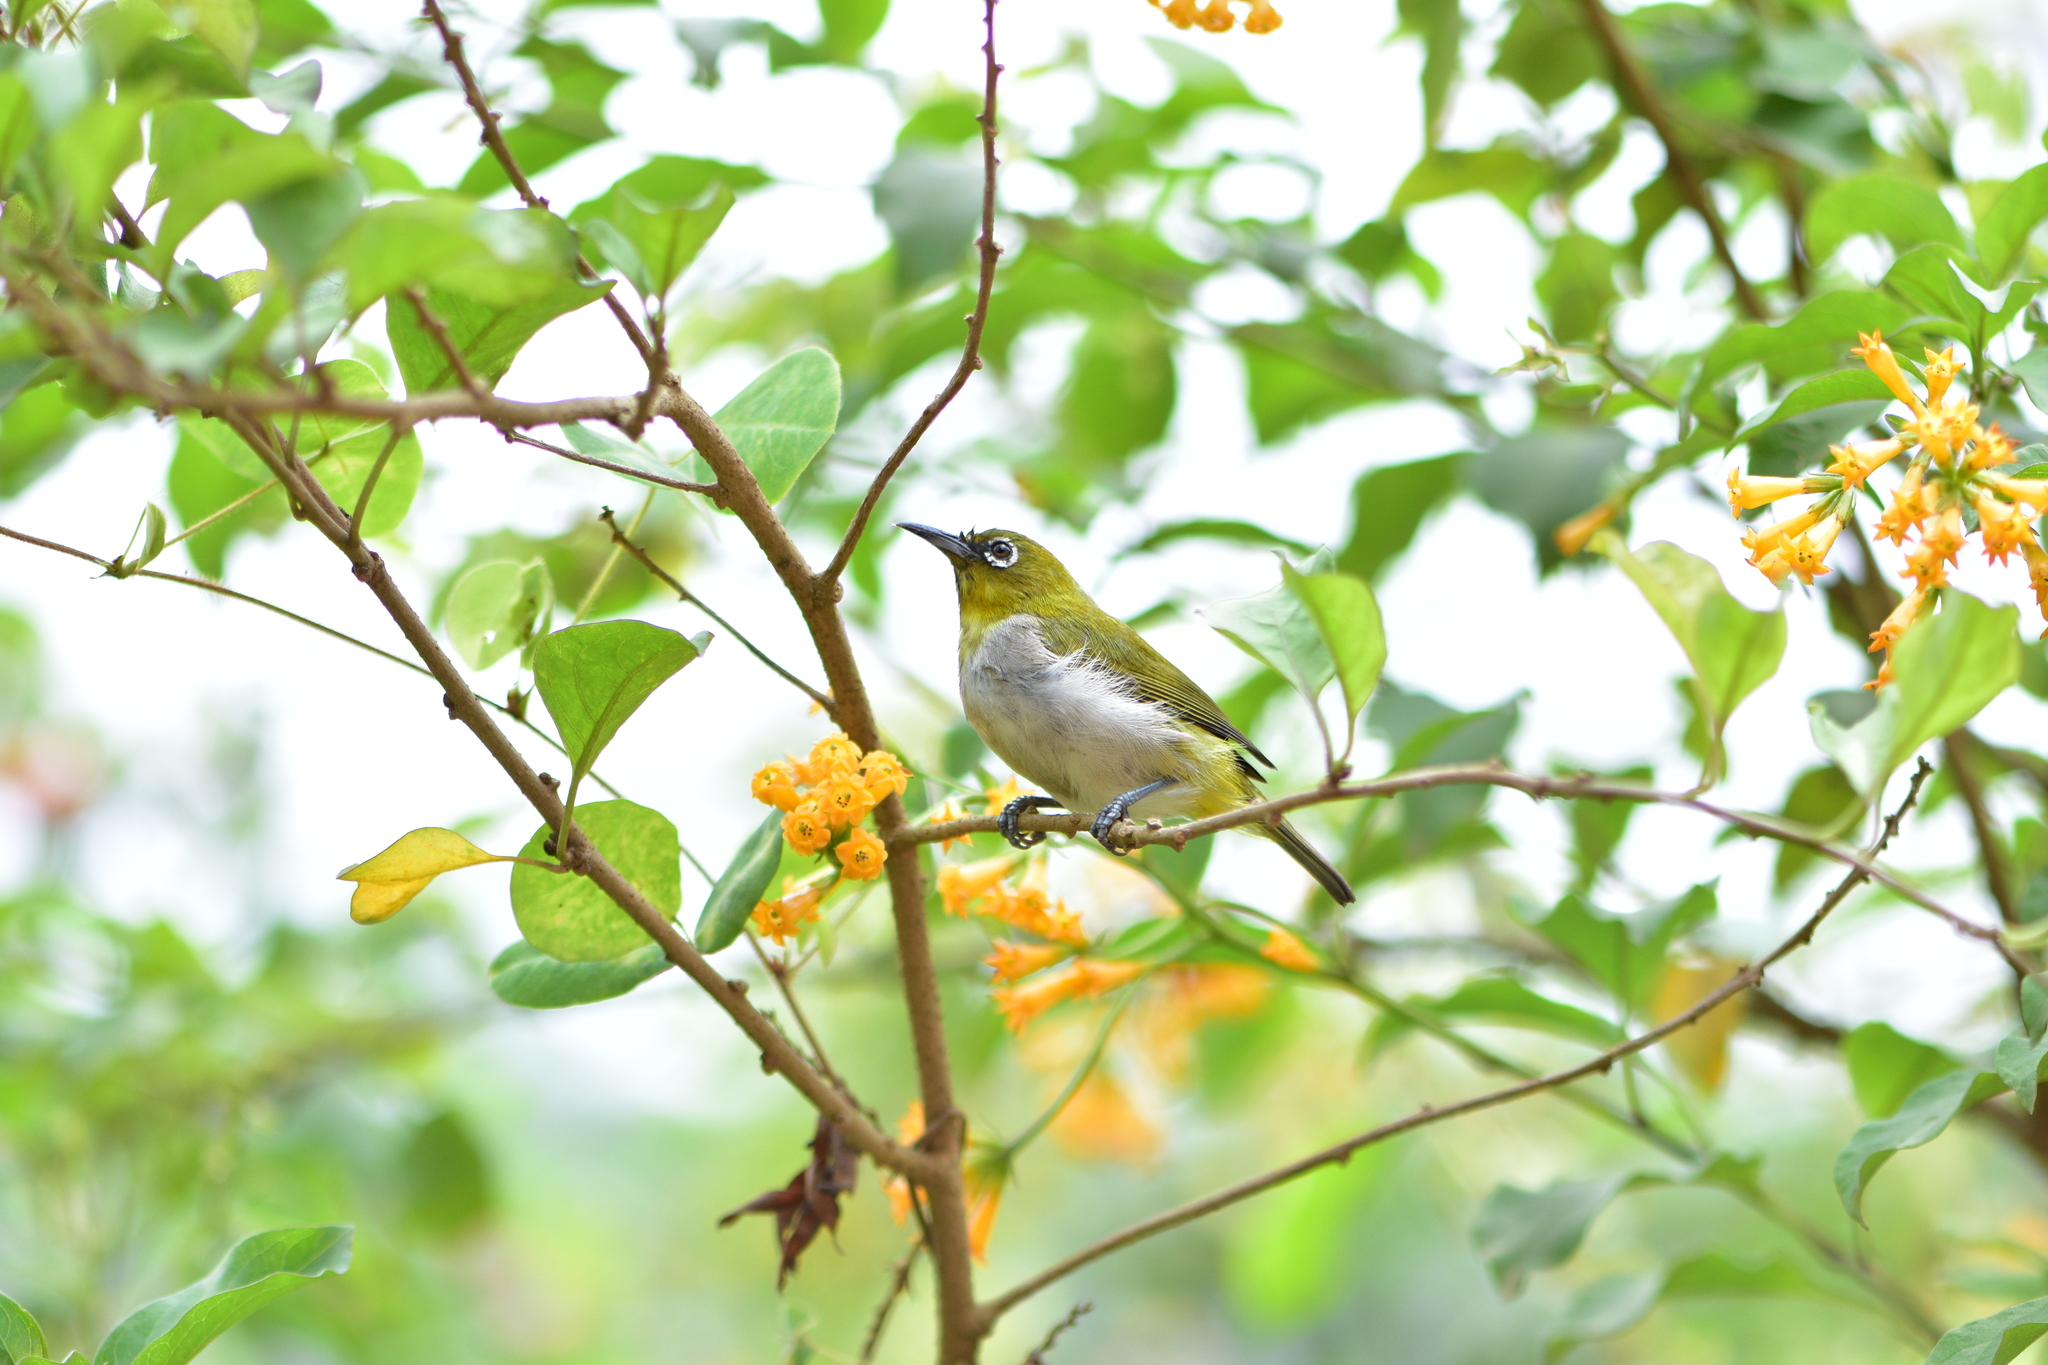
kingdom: Animalia
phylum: Chordata
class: Aves
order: Passeriformes
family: Zosteropidae
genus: Zosterops
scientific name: Zosterops palpebrosus
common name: Oriental white-eye
